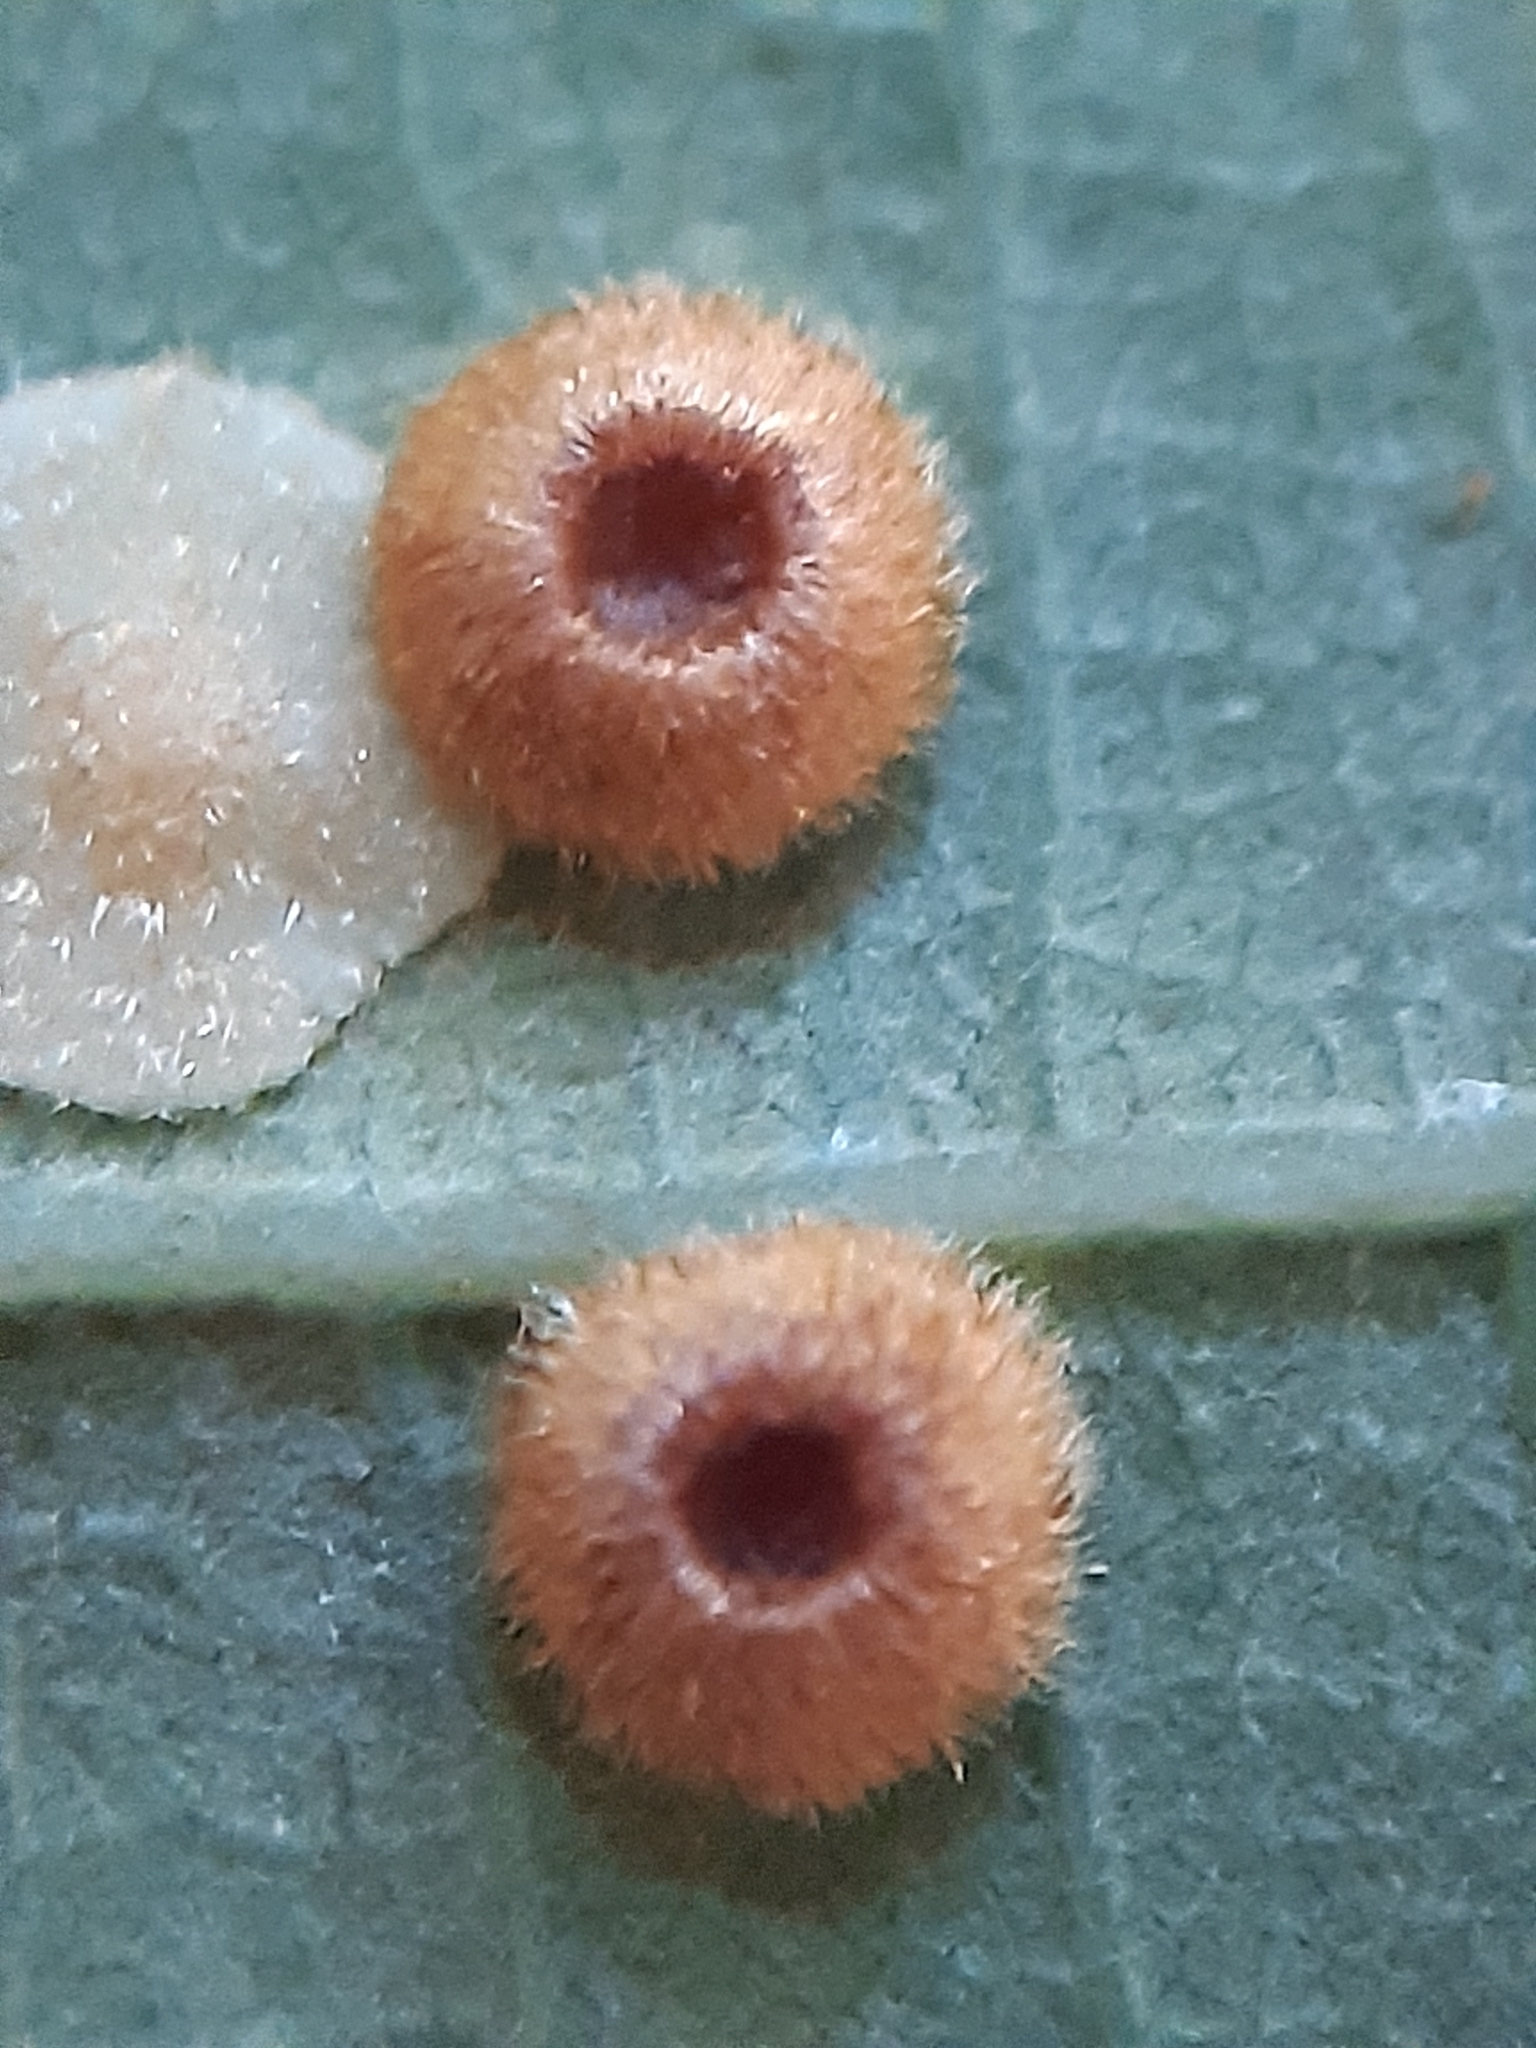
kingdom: Animalia
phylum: Arthropoda
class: Insecta
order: Hymenoptera
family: Cynipidae
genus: Neuroterus
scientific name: Neuroterus numismalis
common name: Silk-button spangle gall
